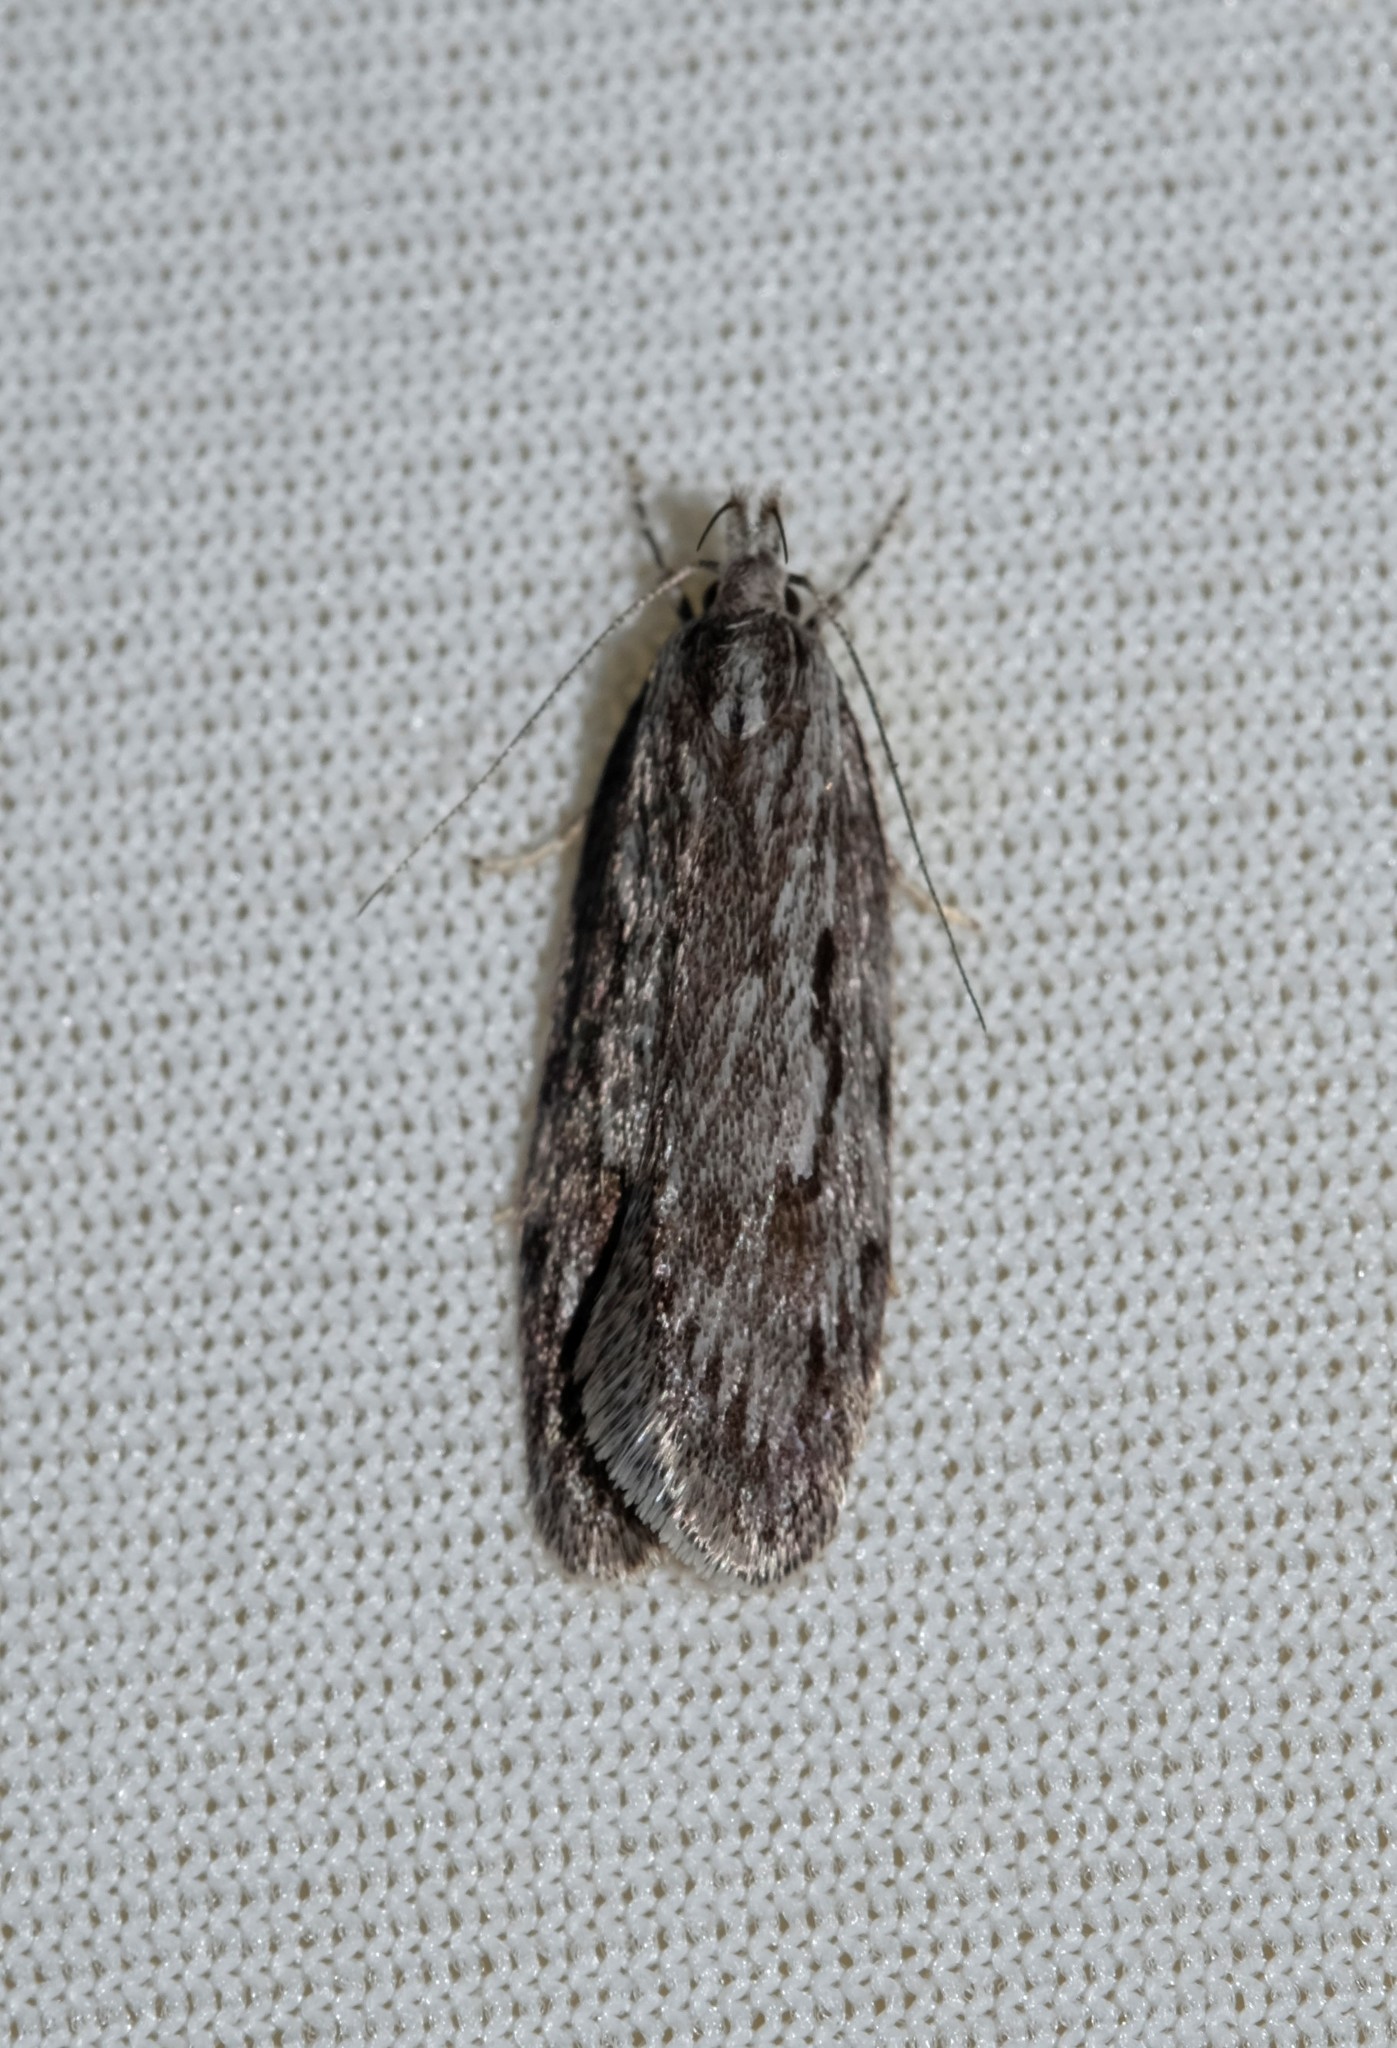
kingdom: Animalia
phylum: Arthropoda
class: Insecta
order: Lepidoptera
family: Oecophoridae
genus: Anomozancla
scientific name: Anomozancla scopariella
